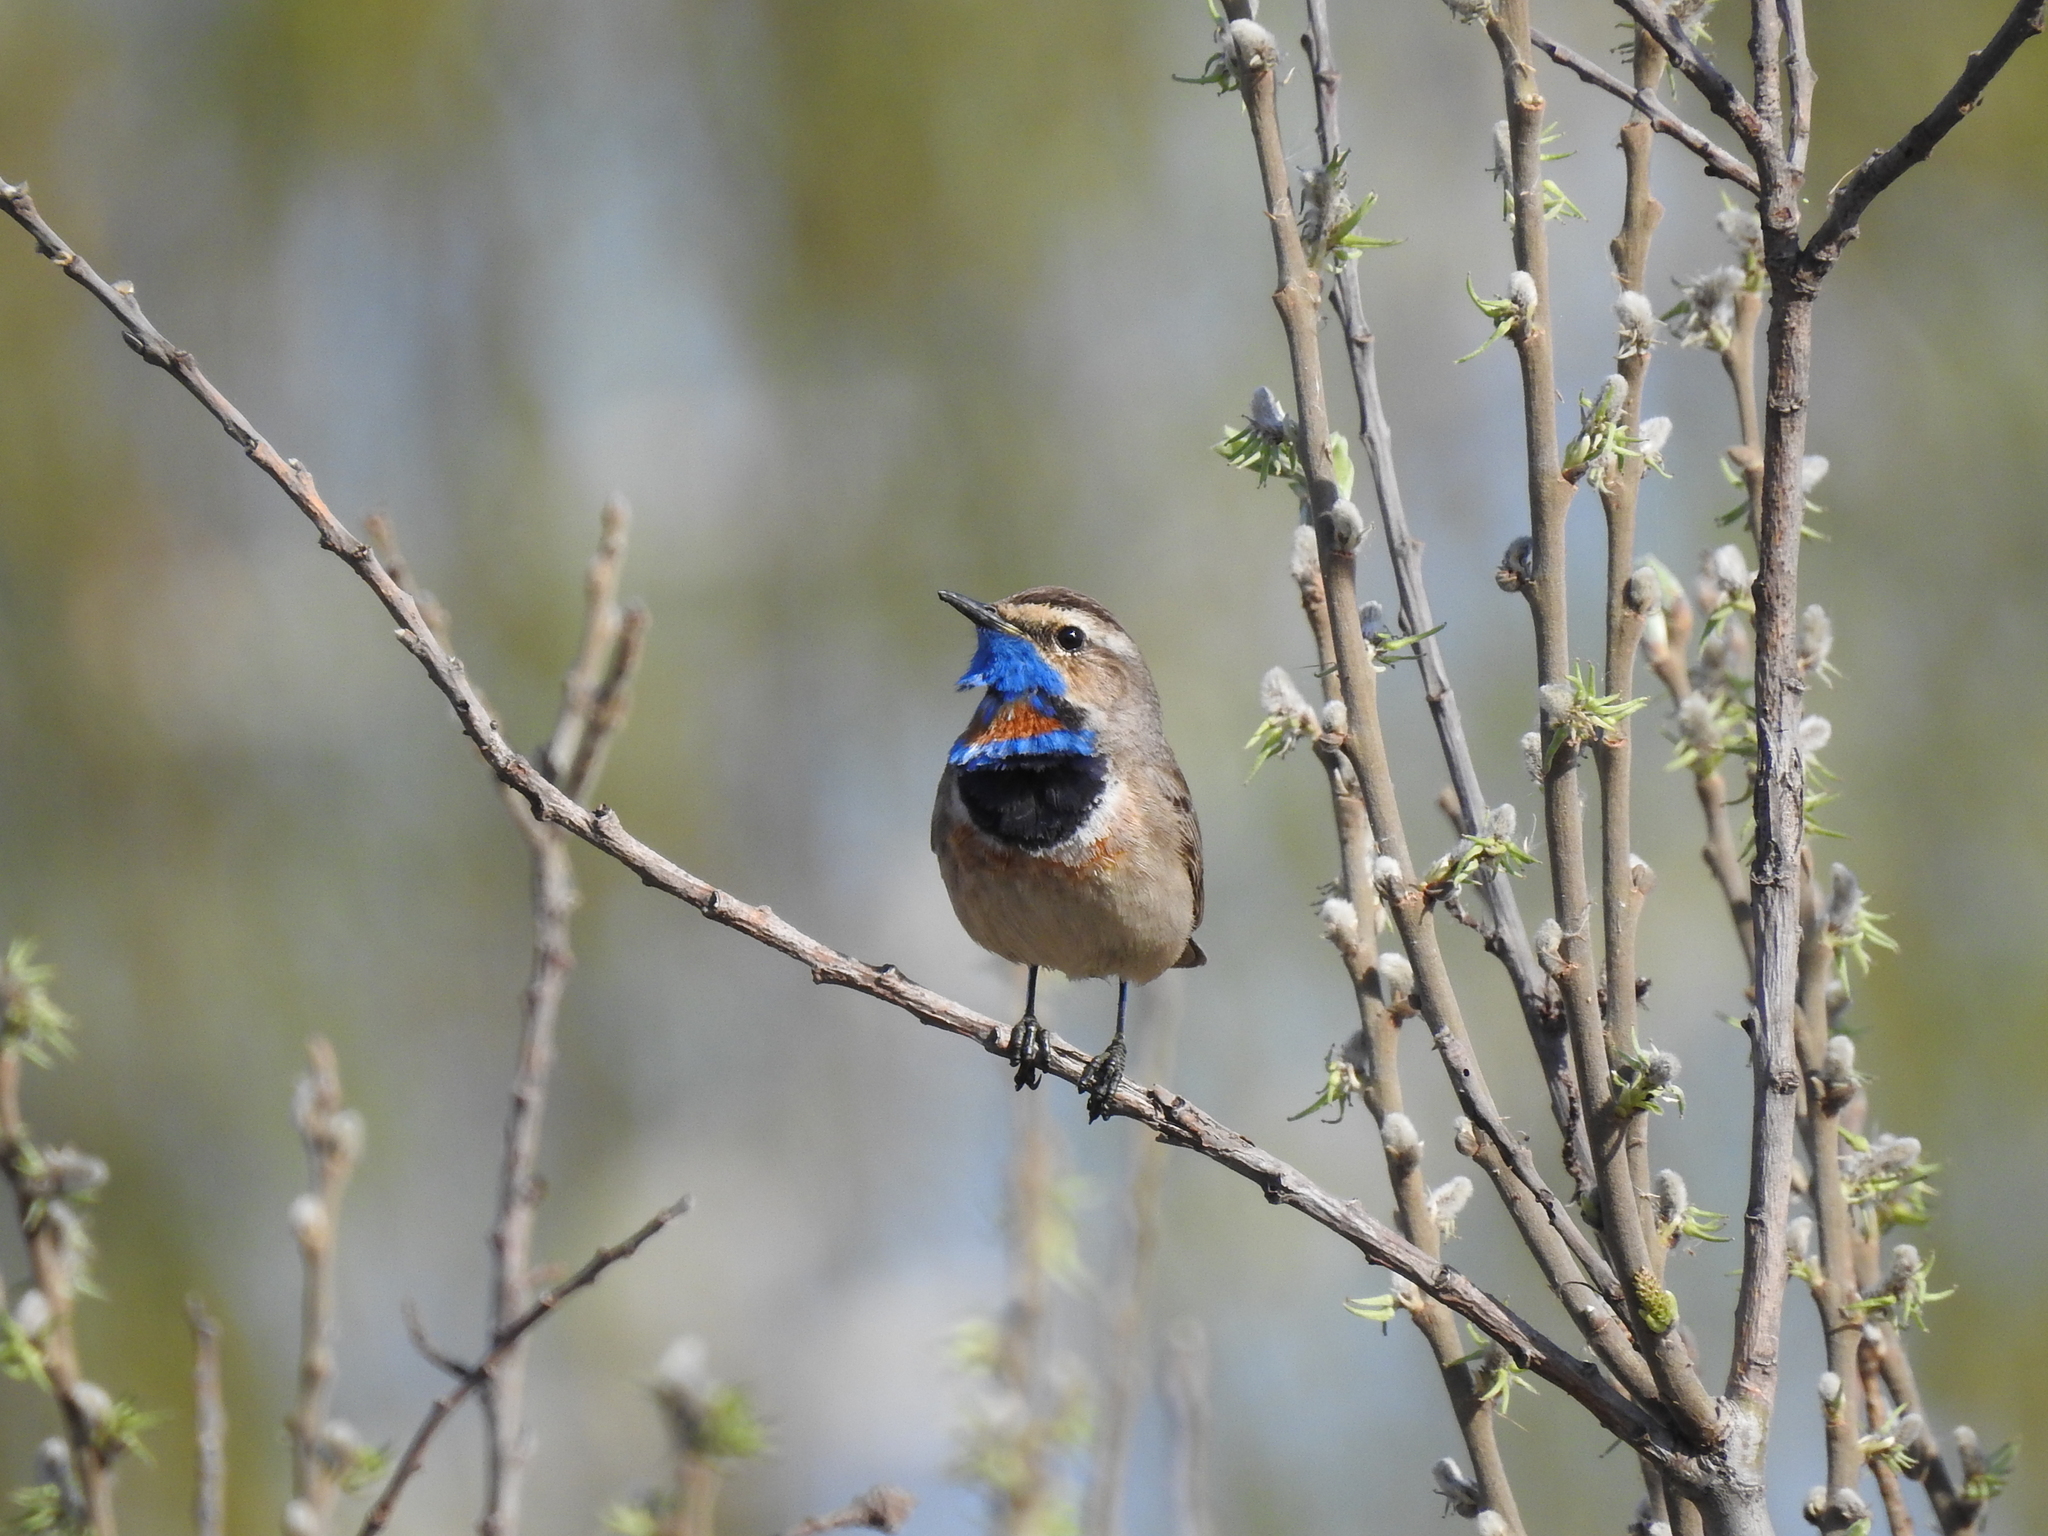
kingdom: Animalia
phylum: Chordata
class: Aves
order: Passeriformes
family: Muscicapidae
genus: Luscinia
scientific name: Luscinia svecica
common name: Bluethroat
